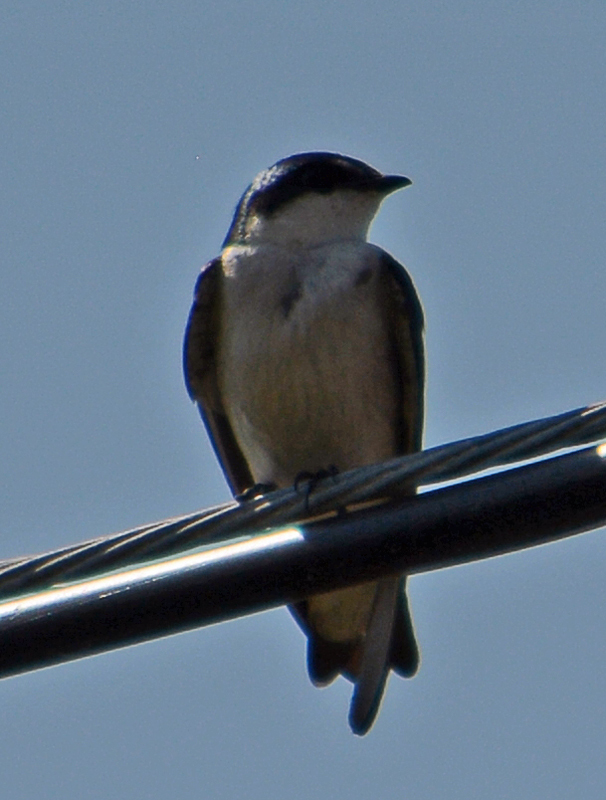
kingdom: Animalia
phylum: Chordata
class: Aves
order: Passeriformes
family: Hirundinidae
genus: Tachycineta
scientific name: Tachycineta albilinea
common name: Mangrove swallow
